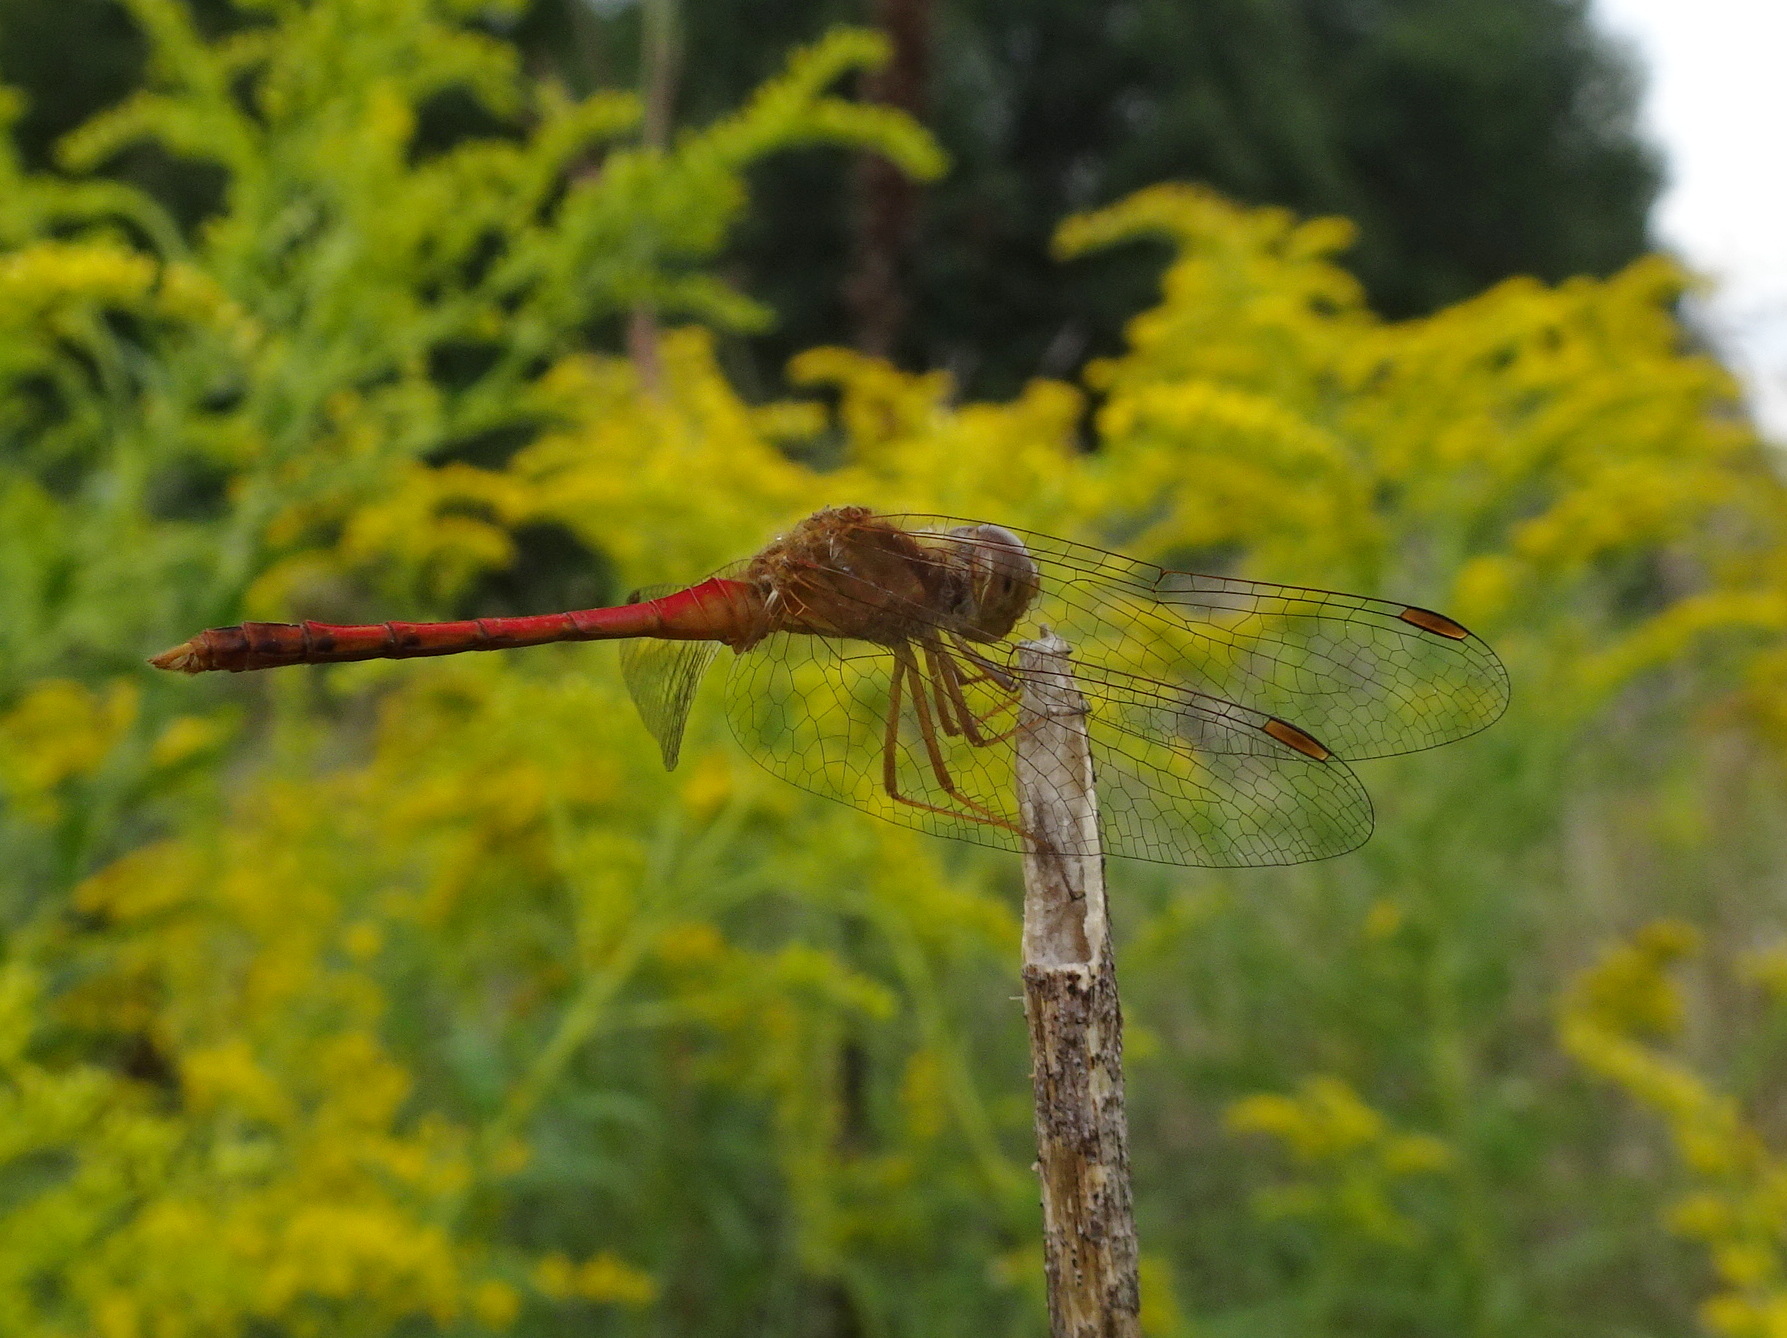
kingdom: Animalia
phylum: Arthropoda
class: Insecta
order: Odonata
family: Libellulidae
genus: Sympetrum
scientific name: Sympetrum vicinum
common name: Autumn meadowhawk
